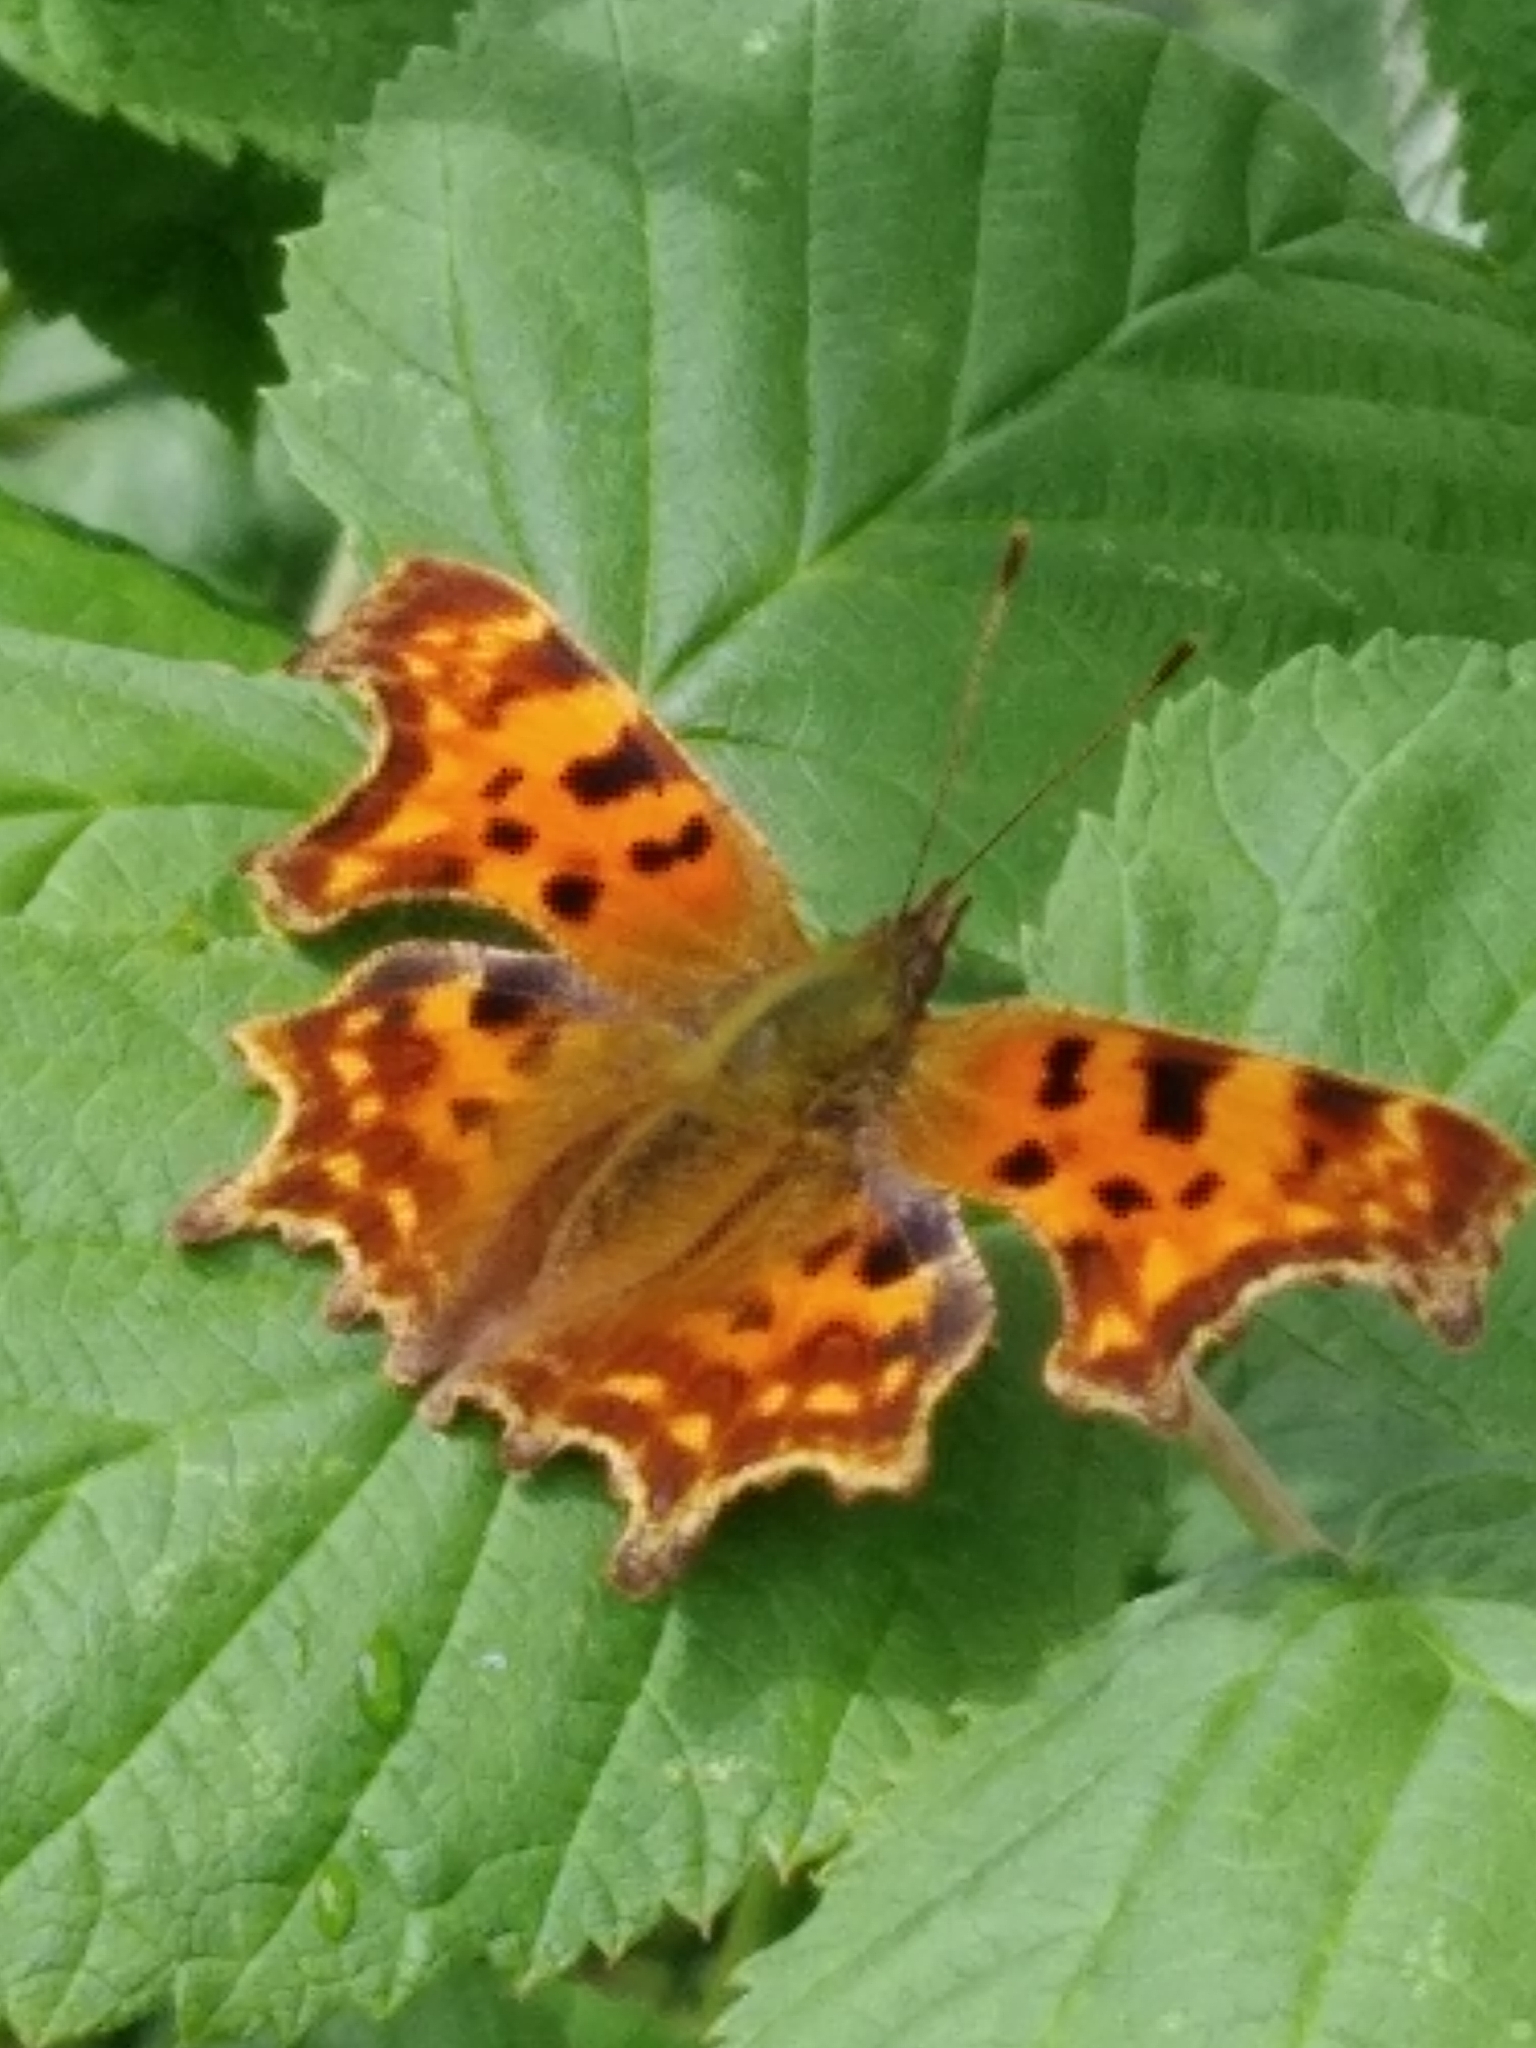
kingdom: Animalia
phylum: Arthropoda
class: Insecta
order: Lepidoptera
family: Nymphalidae
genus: Polygonia
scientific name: Polygonia c-album
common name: Comma
